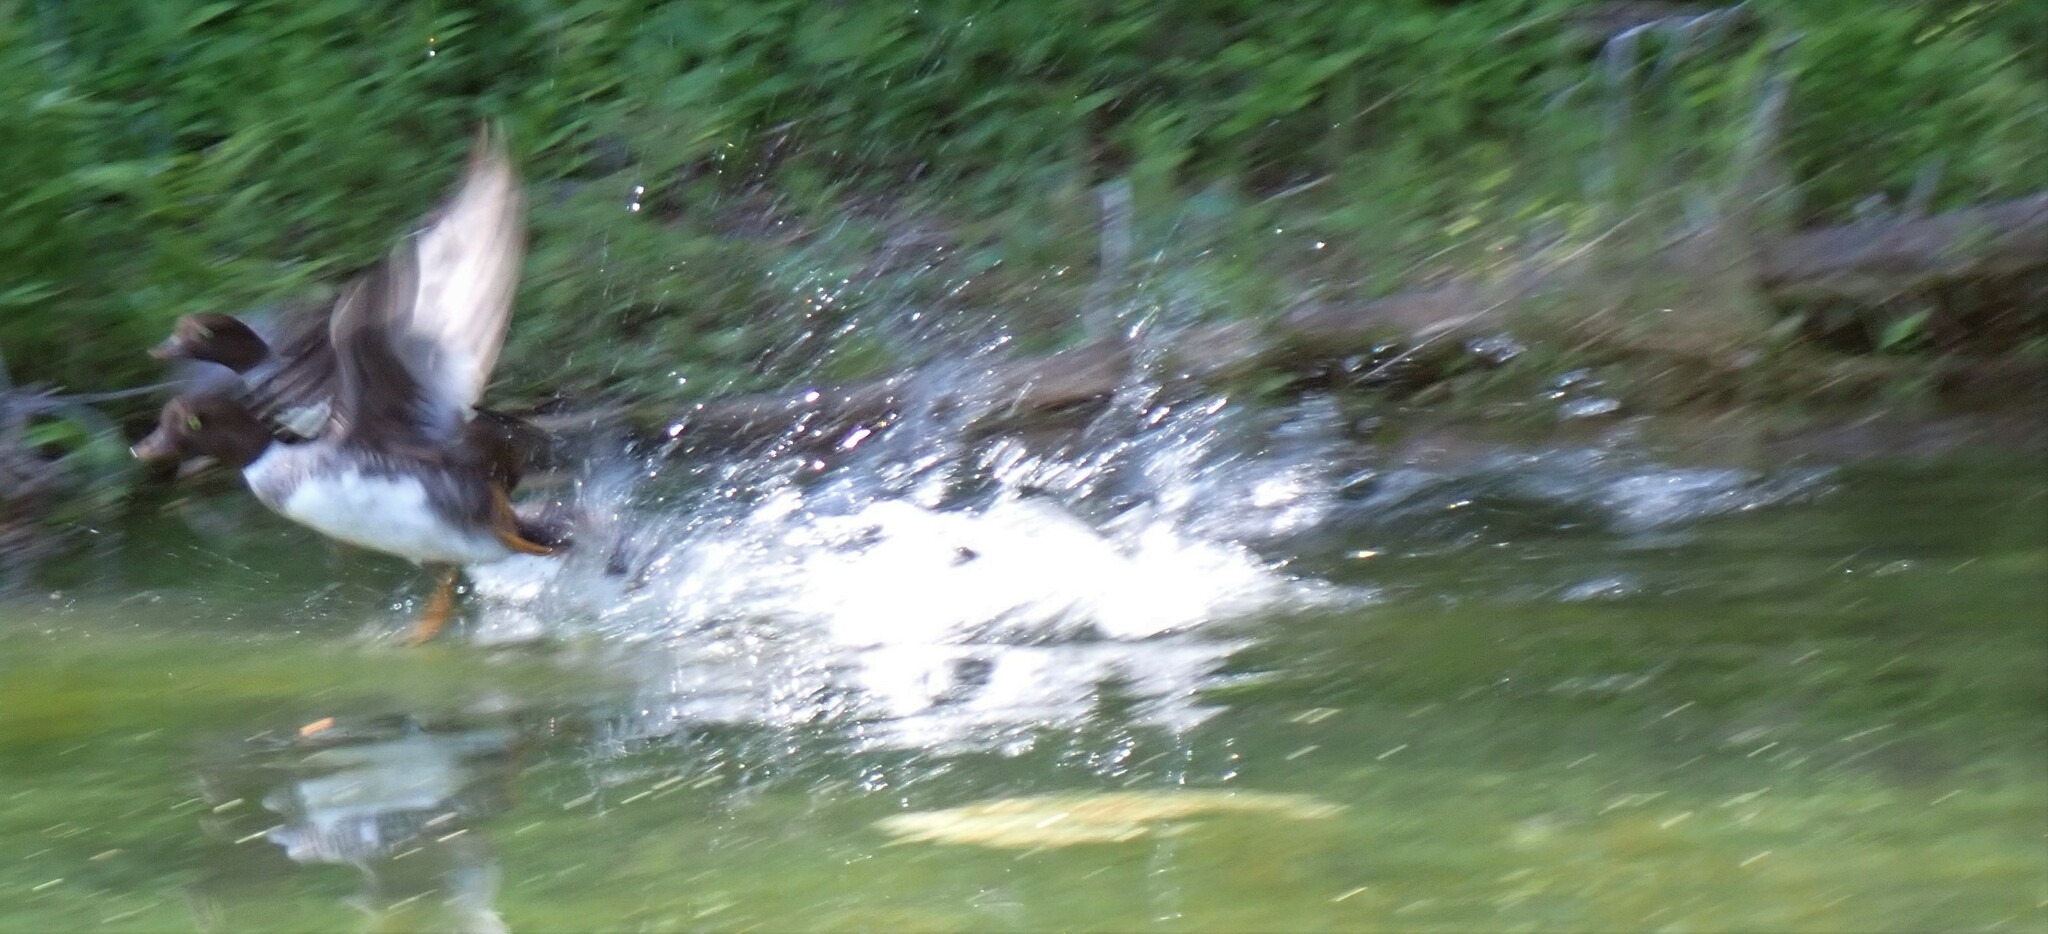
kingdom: Animalia
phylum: Chordata
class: Aves
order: Anseriformes
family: Anatidae
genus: Bucephala
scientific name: Bucephala islandica
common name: Barrow's goldeneye
